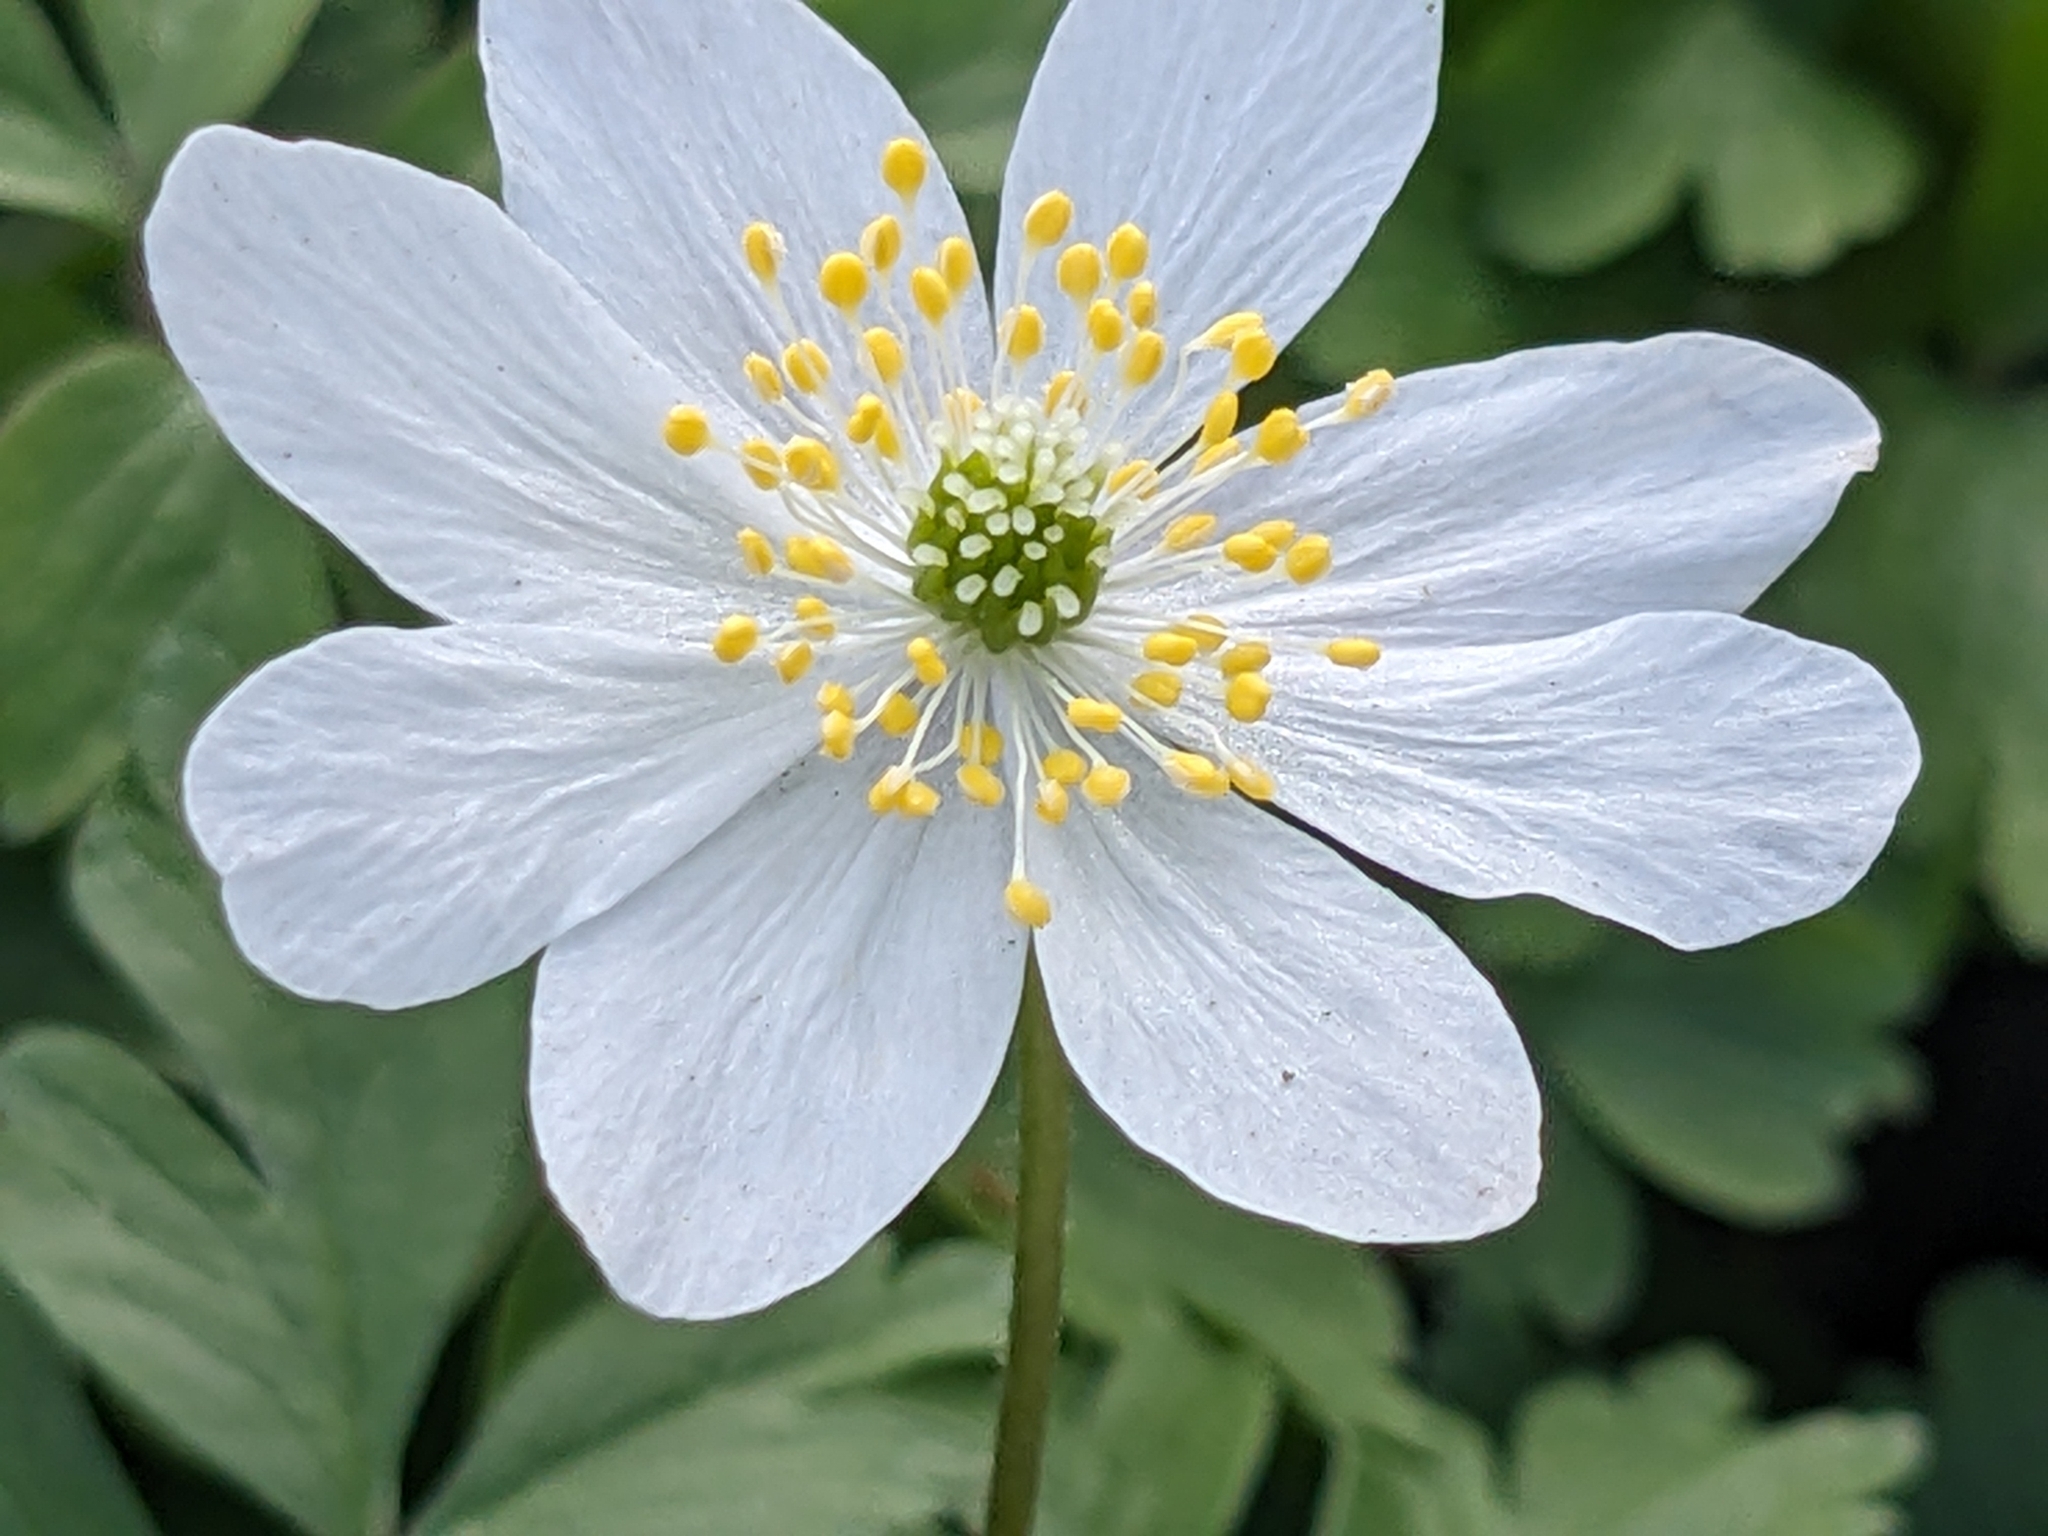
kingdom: Plantae
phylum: Tracheophyta
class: Magnoliopsida
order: Ranunculales
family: Ranunculaceae
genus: Anemone
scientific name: Anemone nemorosa
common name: Wood anemone
